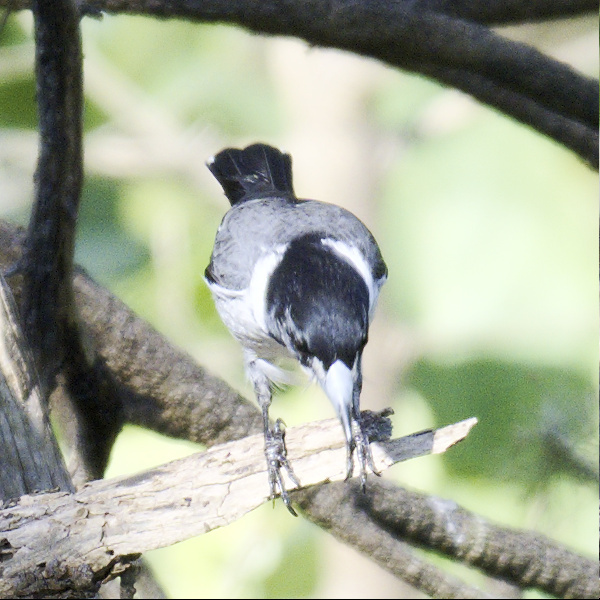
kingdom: Animalia
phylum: Chordata
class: Aves
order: Passeriformes
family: Cracticidae
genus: Cracticus
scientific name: Cracticus torquatus
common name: Grey butcherbird
